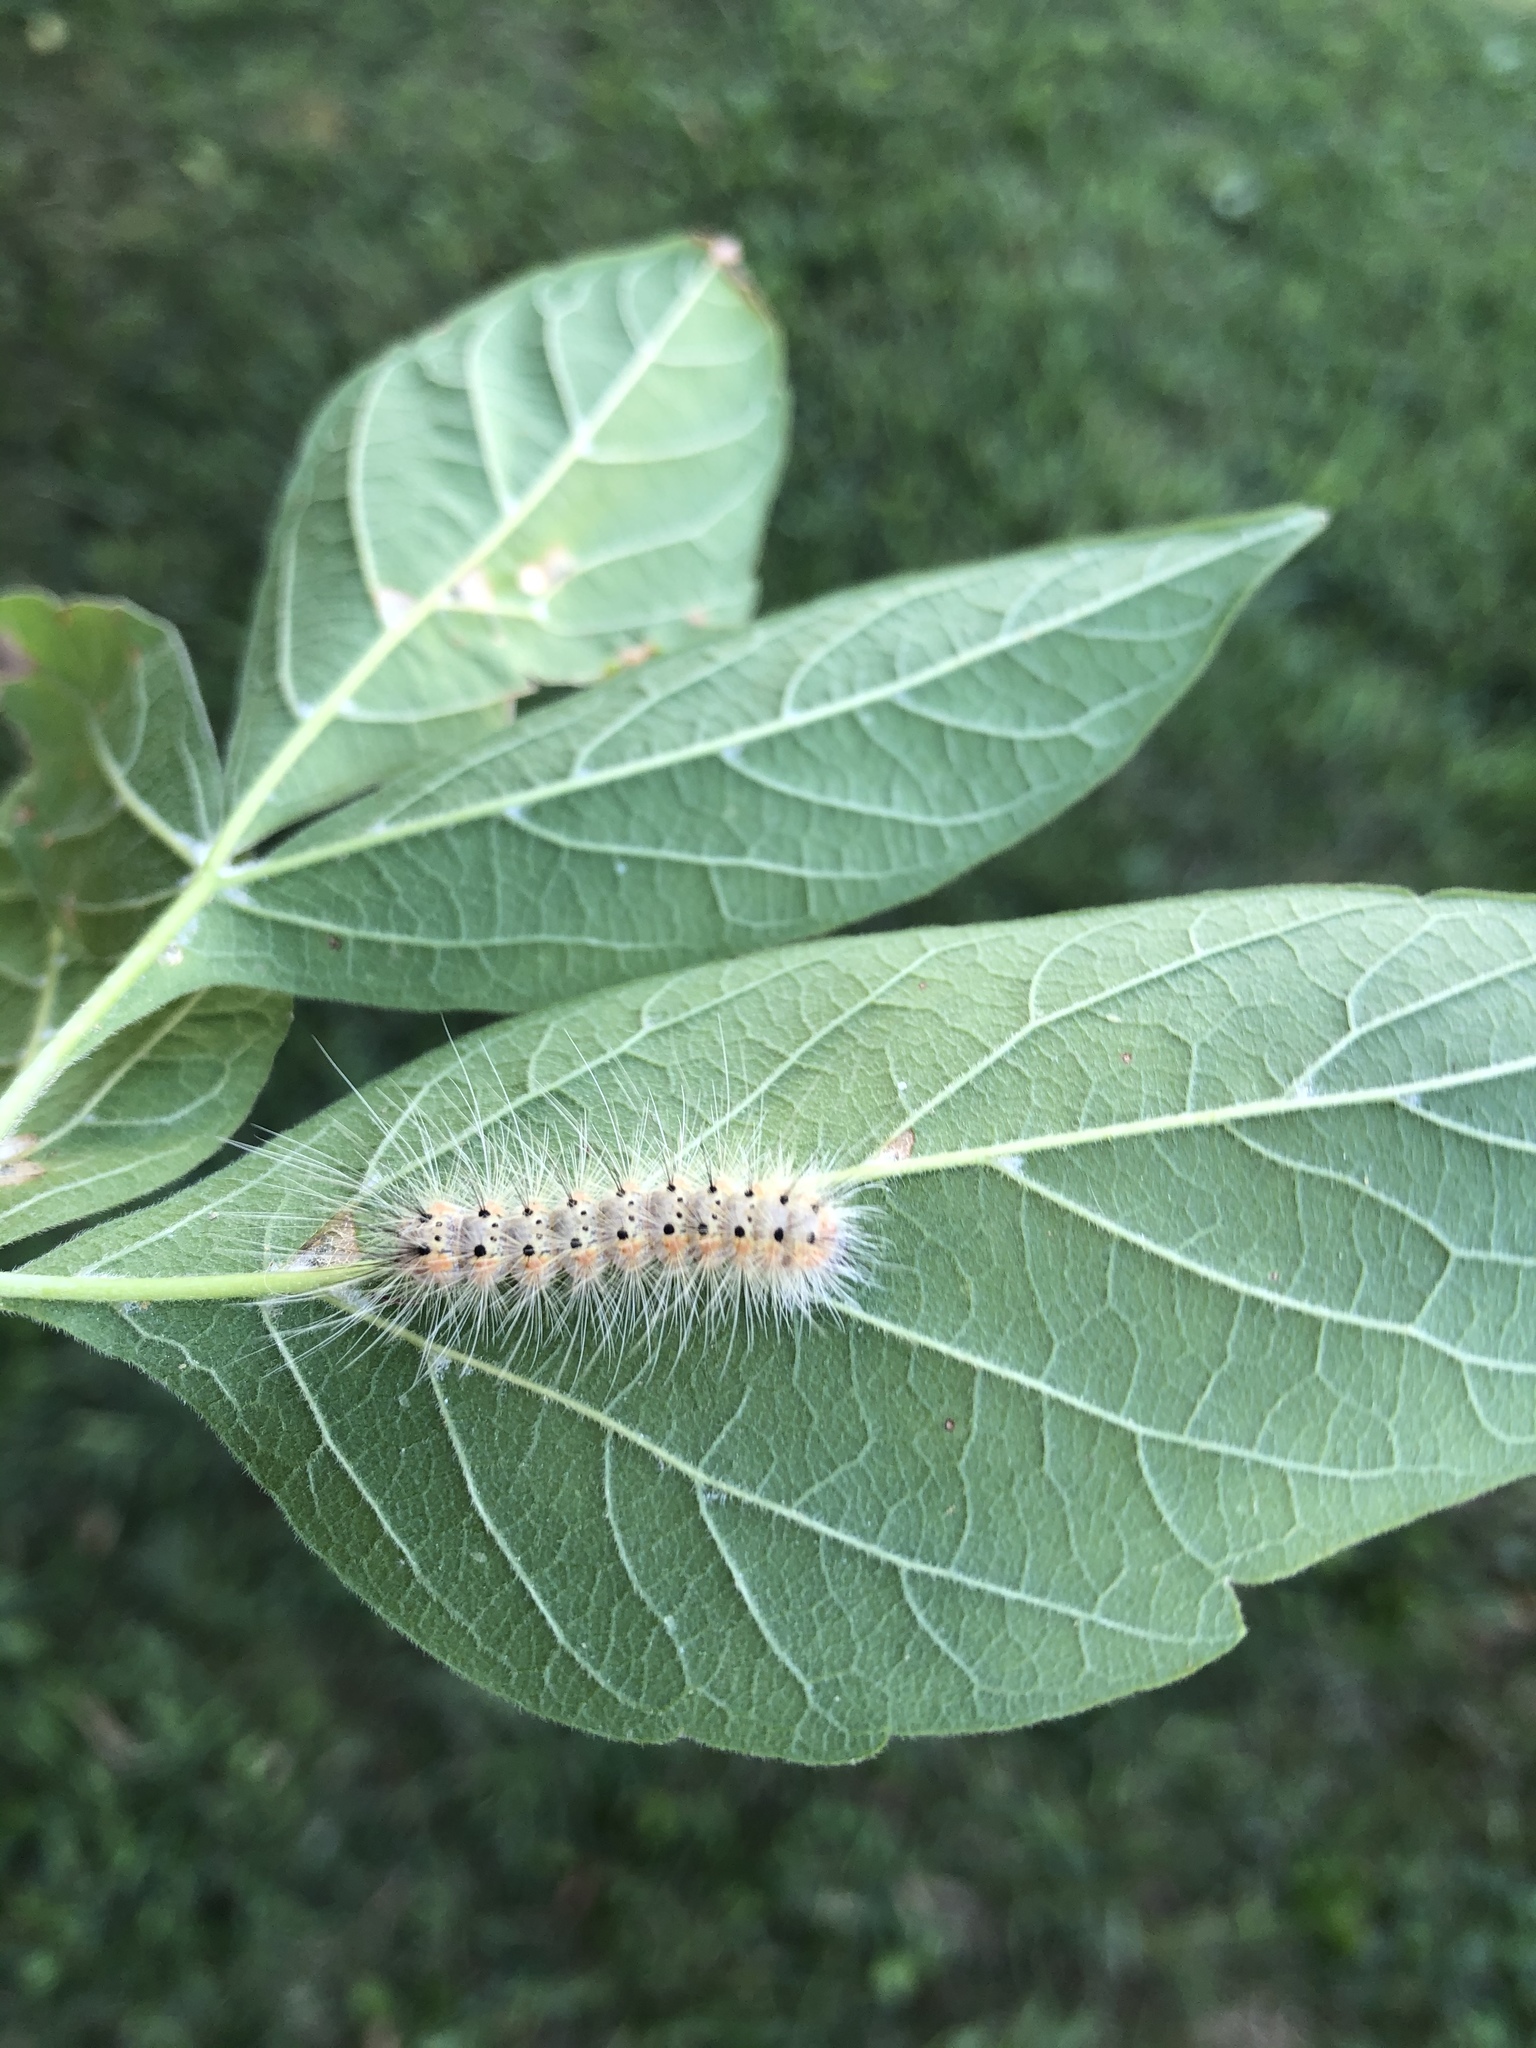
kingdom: Animalia
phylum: Arthropoda
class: Insecta
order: Lepidoptera
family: Erebidae
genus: Hyphantria
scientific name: Hyphantria cunea
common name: American white moth
